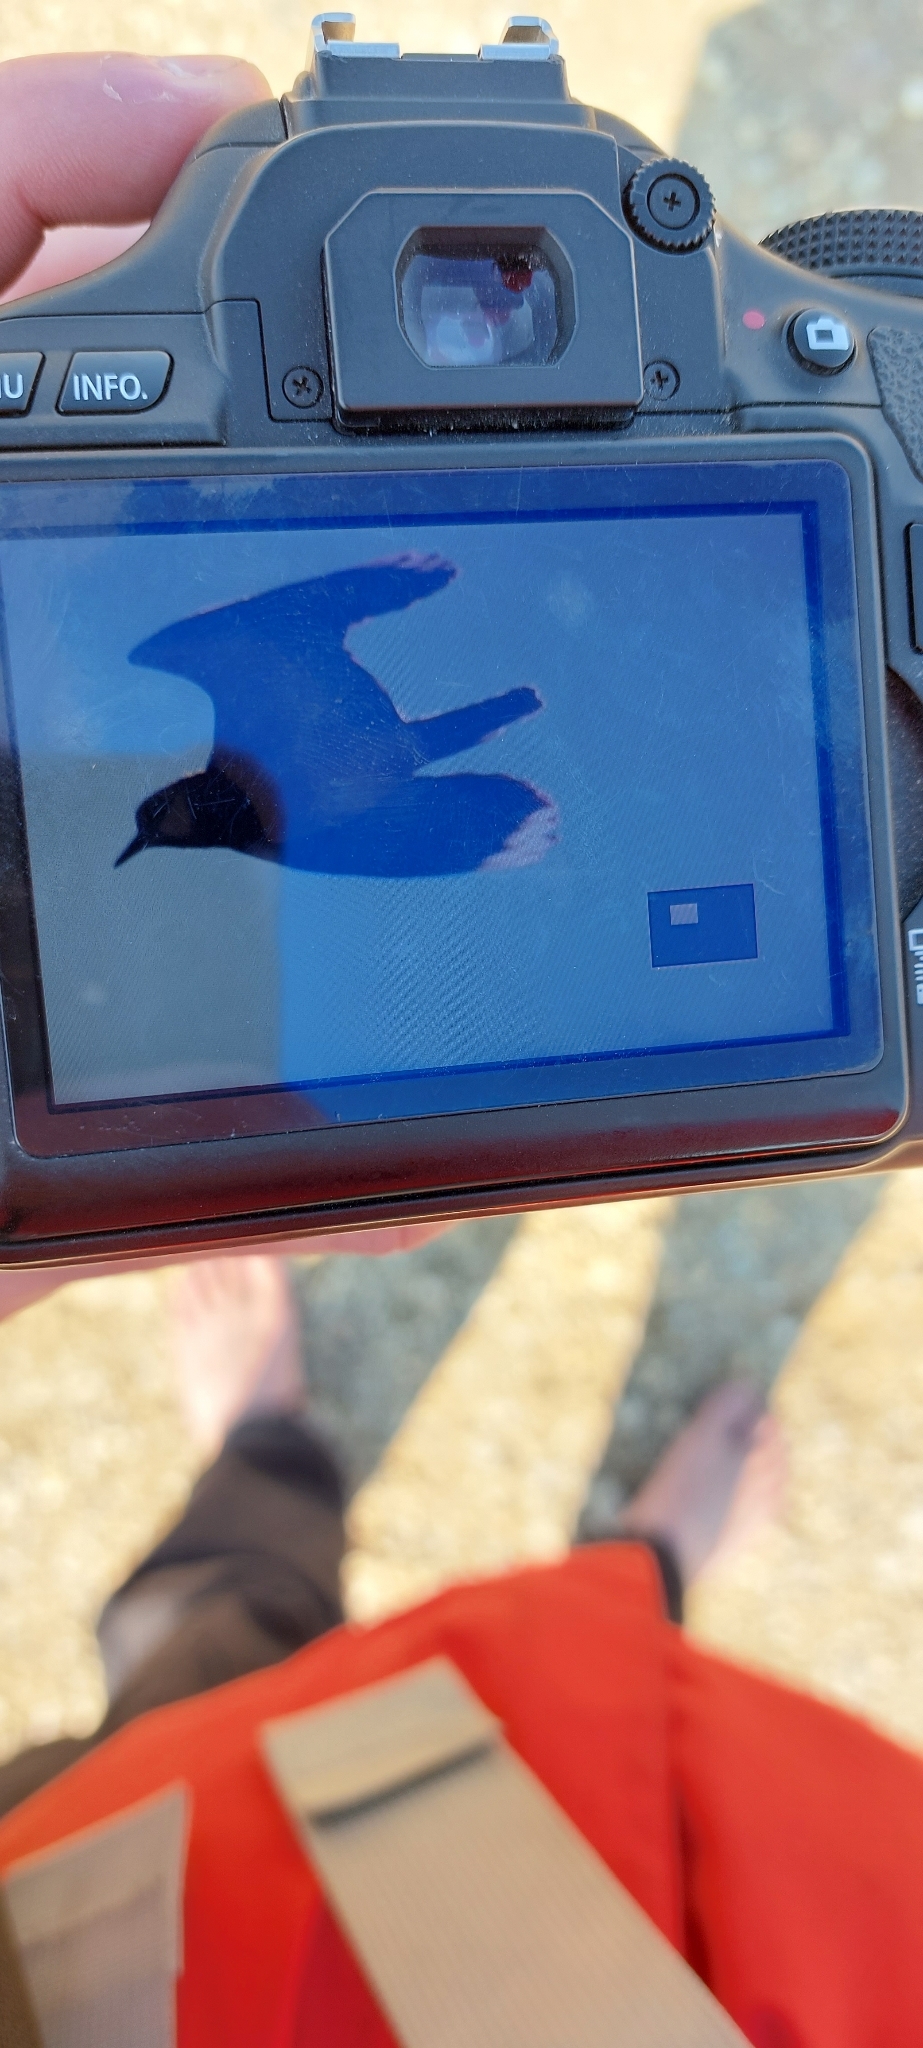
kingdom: Animalia
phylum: Chordata
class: Aves
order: Charadriiformes
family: Charadriidae
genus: Vanellus
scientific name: Vanellus vanellus
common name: Northern lapwing
